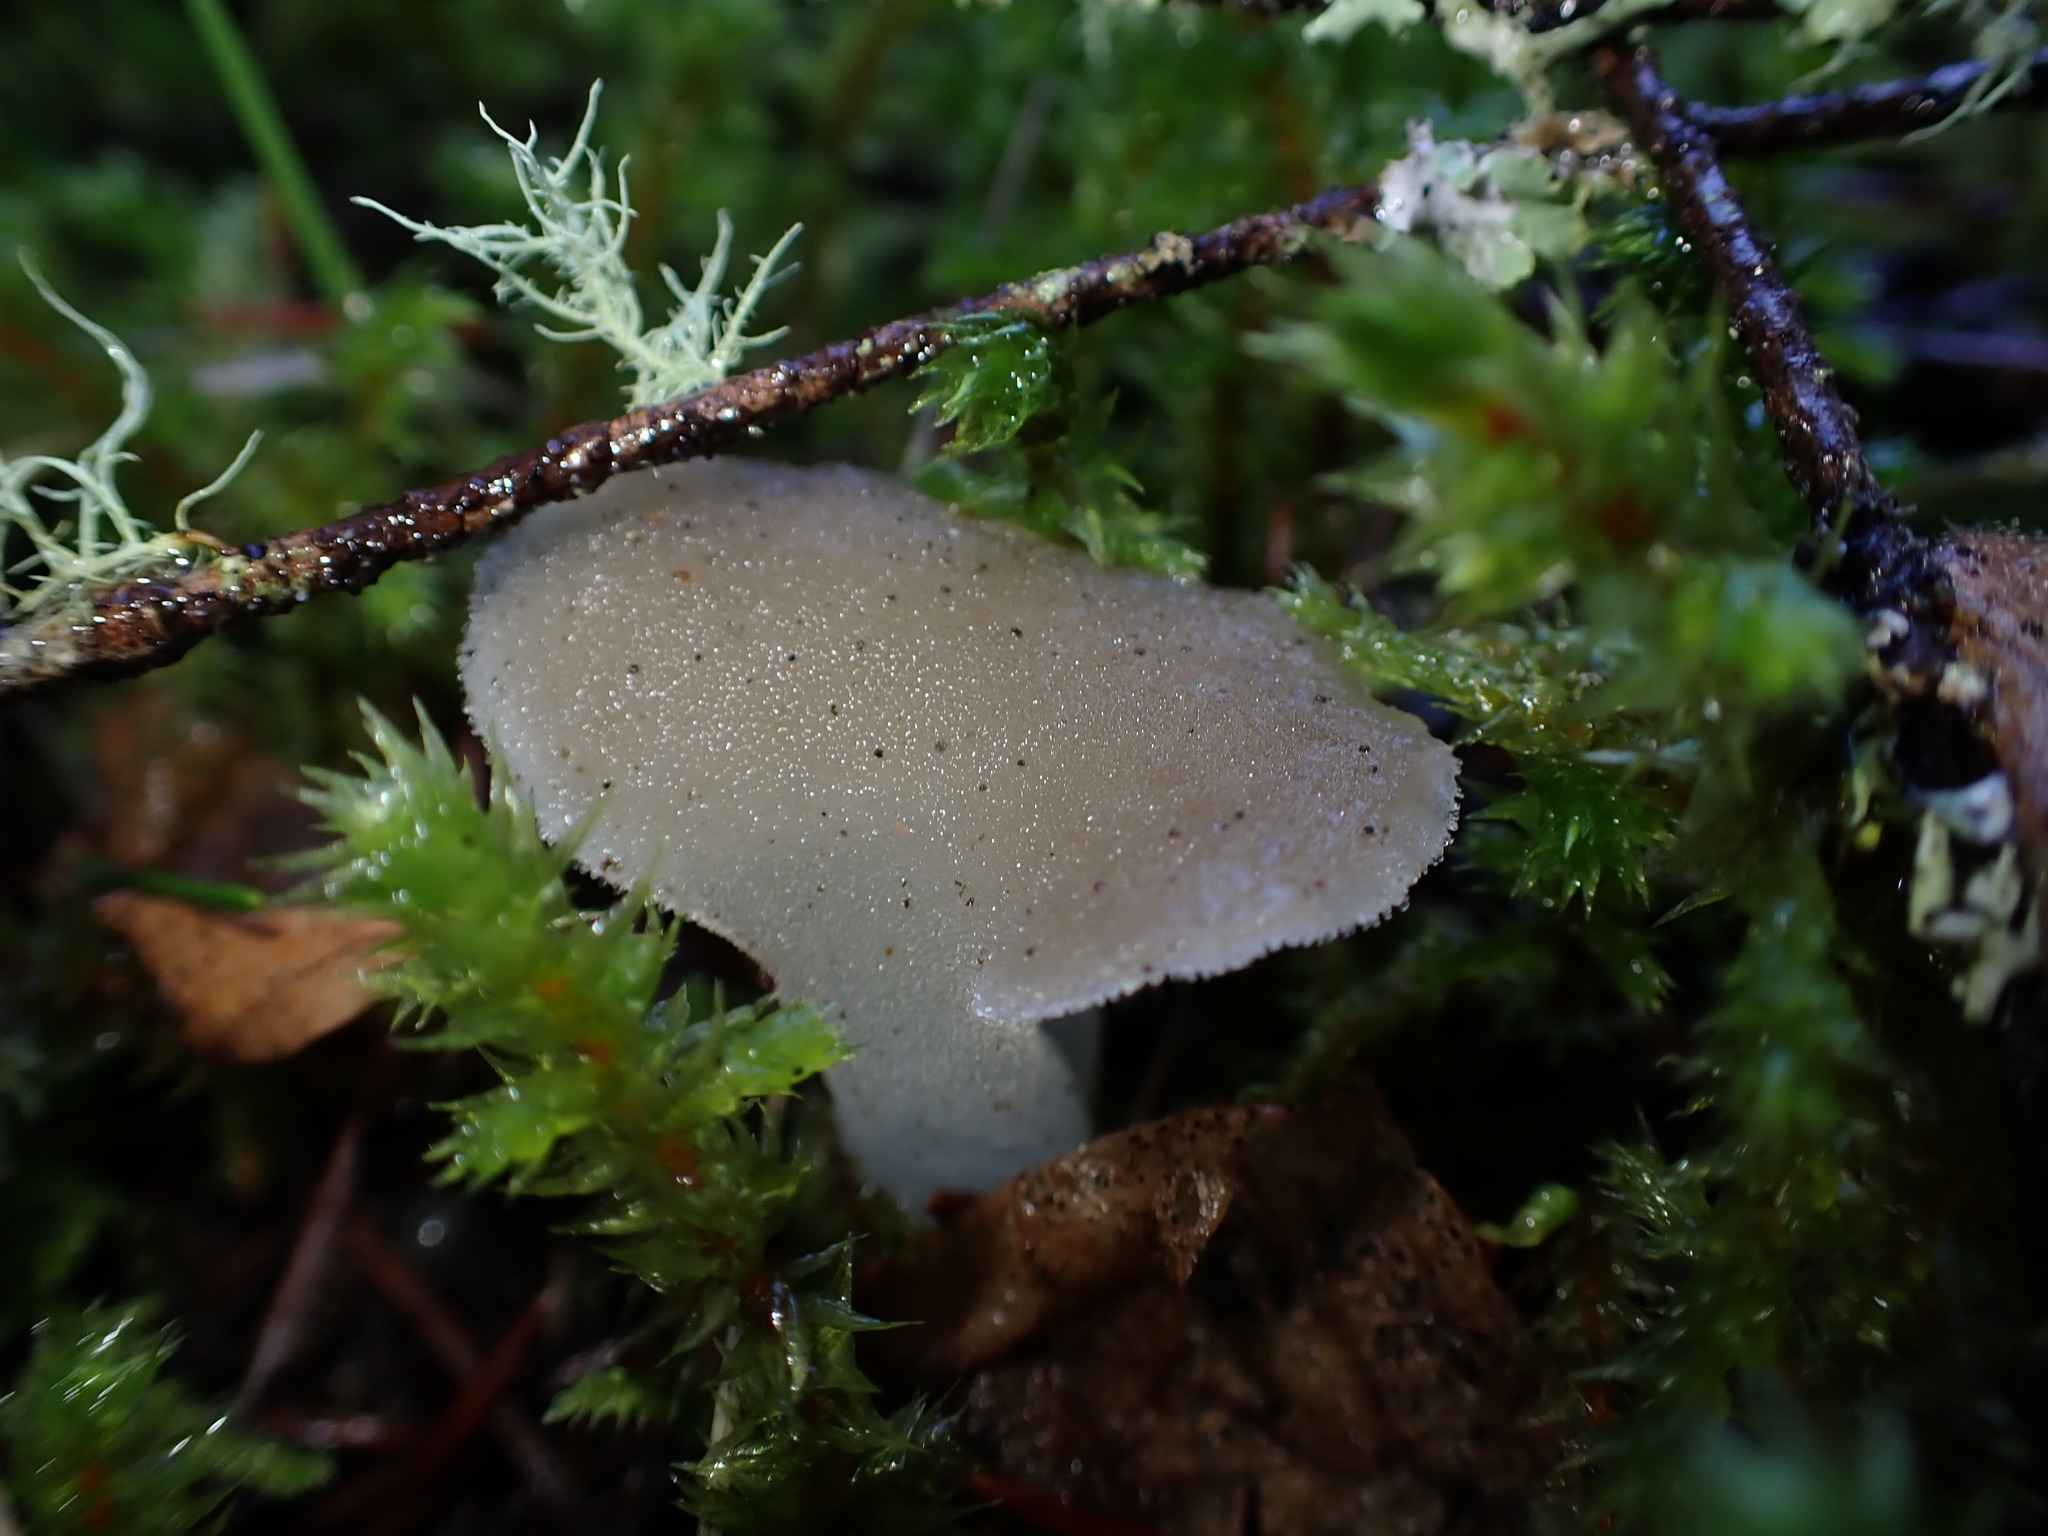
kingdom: Fungi
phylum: Basidiomycota
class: Agaricomycetes
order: Auriculariales
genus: Pseudohydnum
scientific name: Pseudohydnum gelatinosum
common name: Jelly tongue
